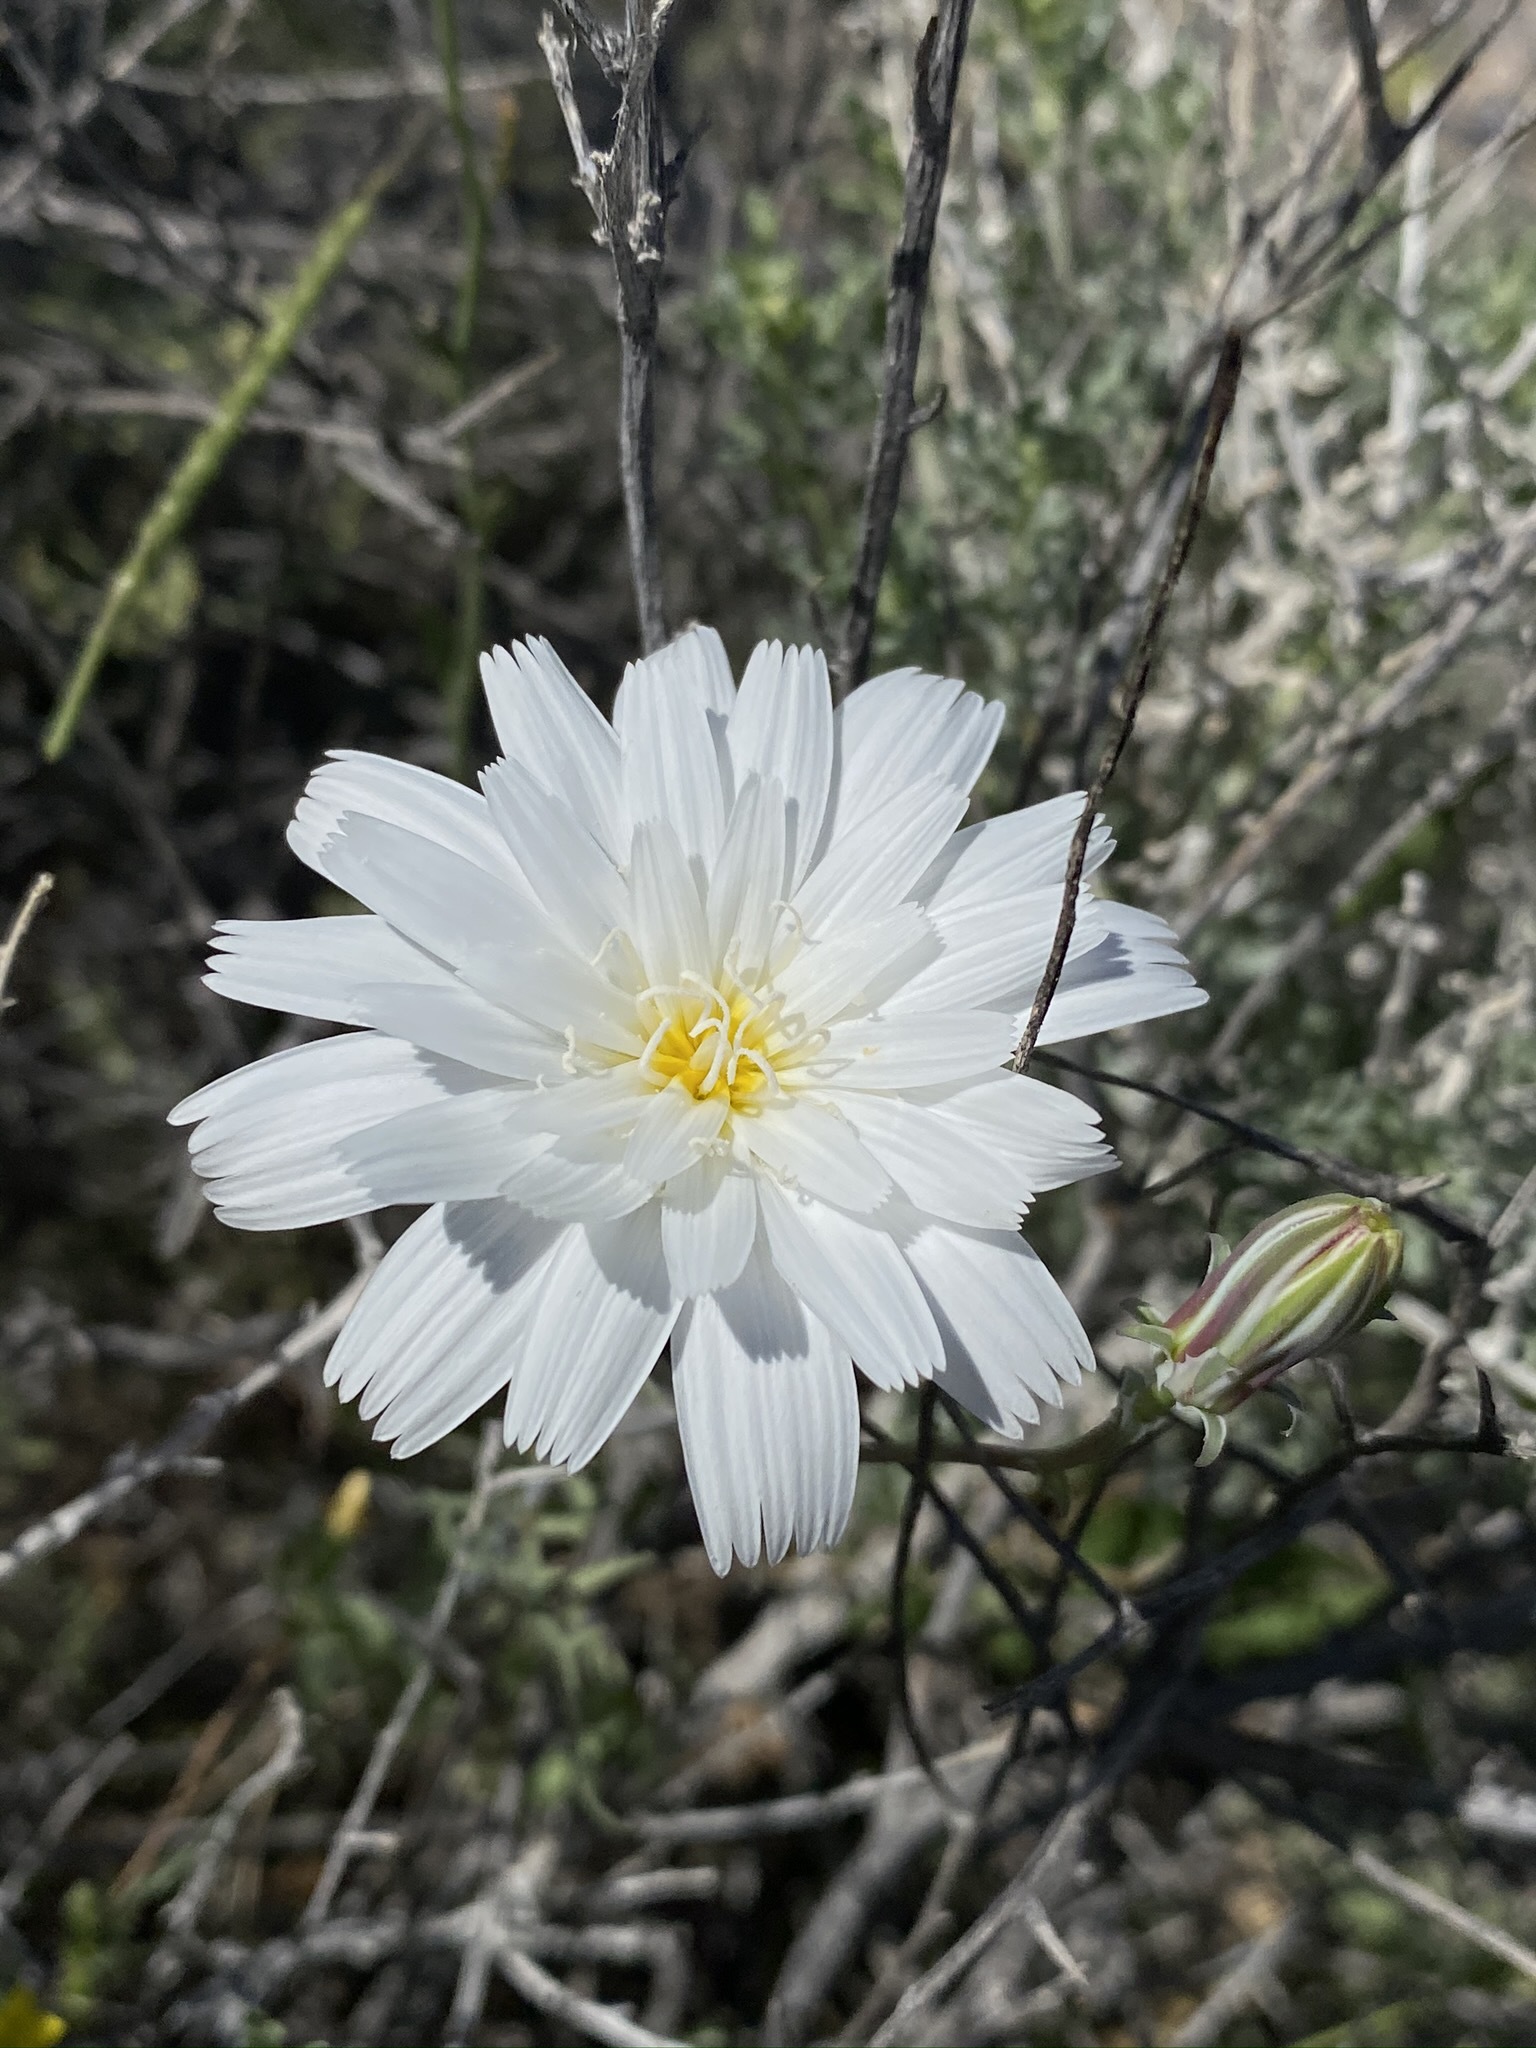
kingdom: Plantae
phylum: Tracheophyta
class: Magnoliopsida
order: Asterales
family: Asteraceae
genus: Rafinesquia
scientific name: Rafinesquia neomexicana
